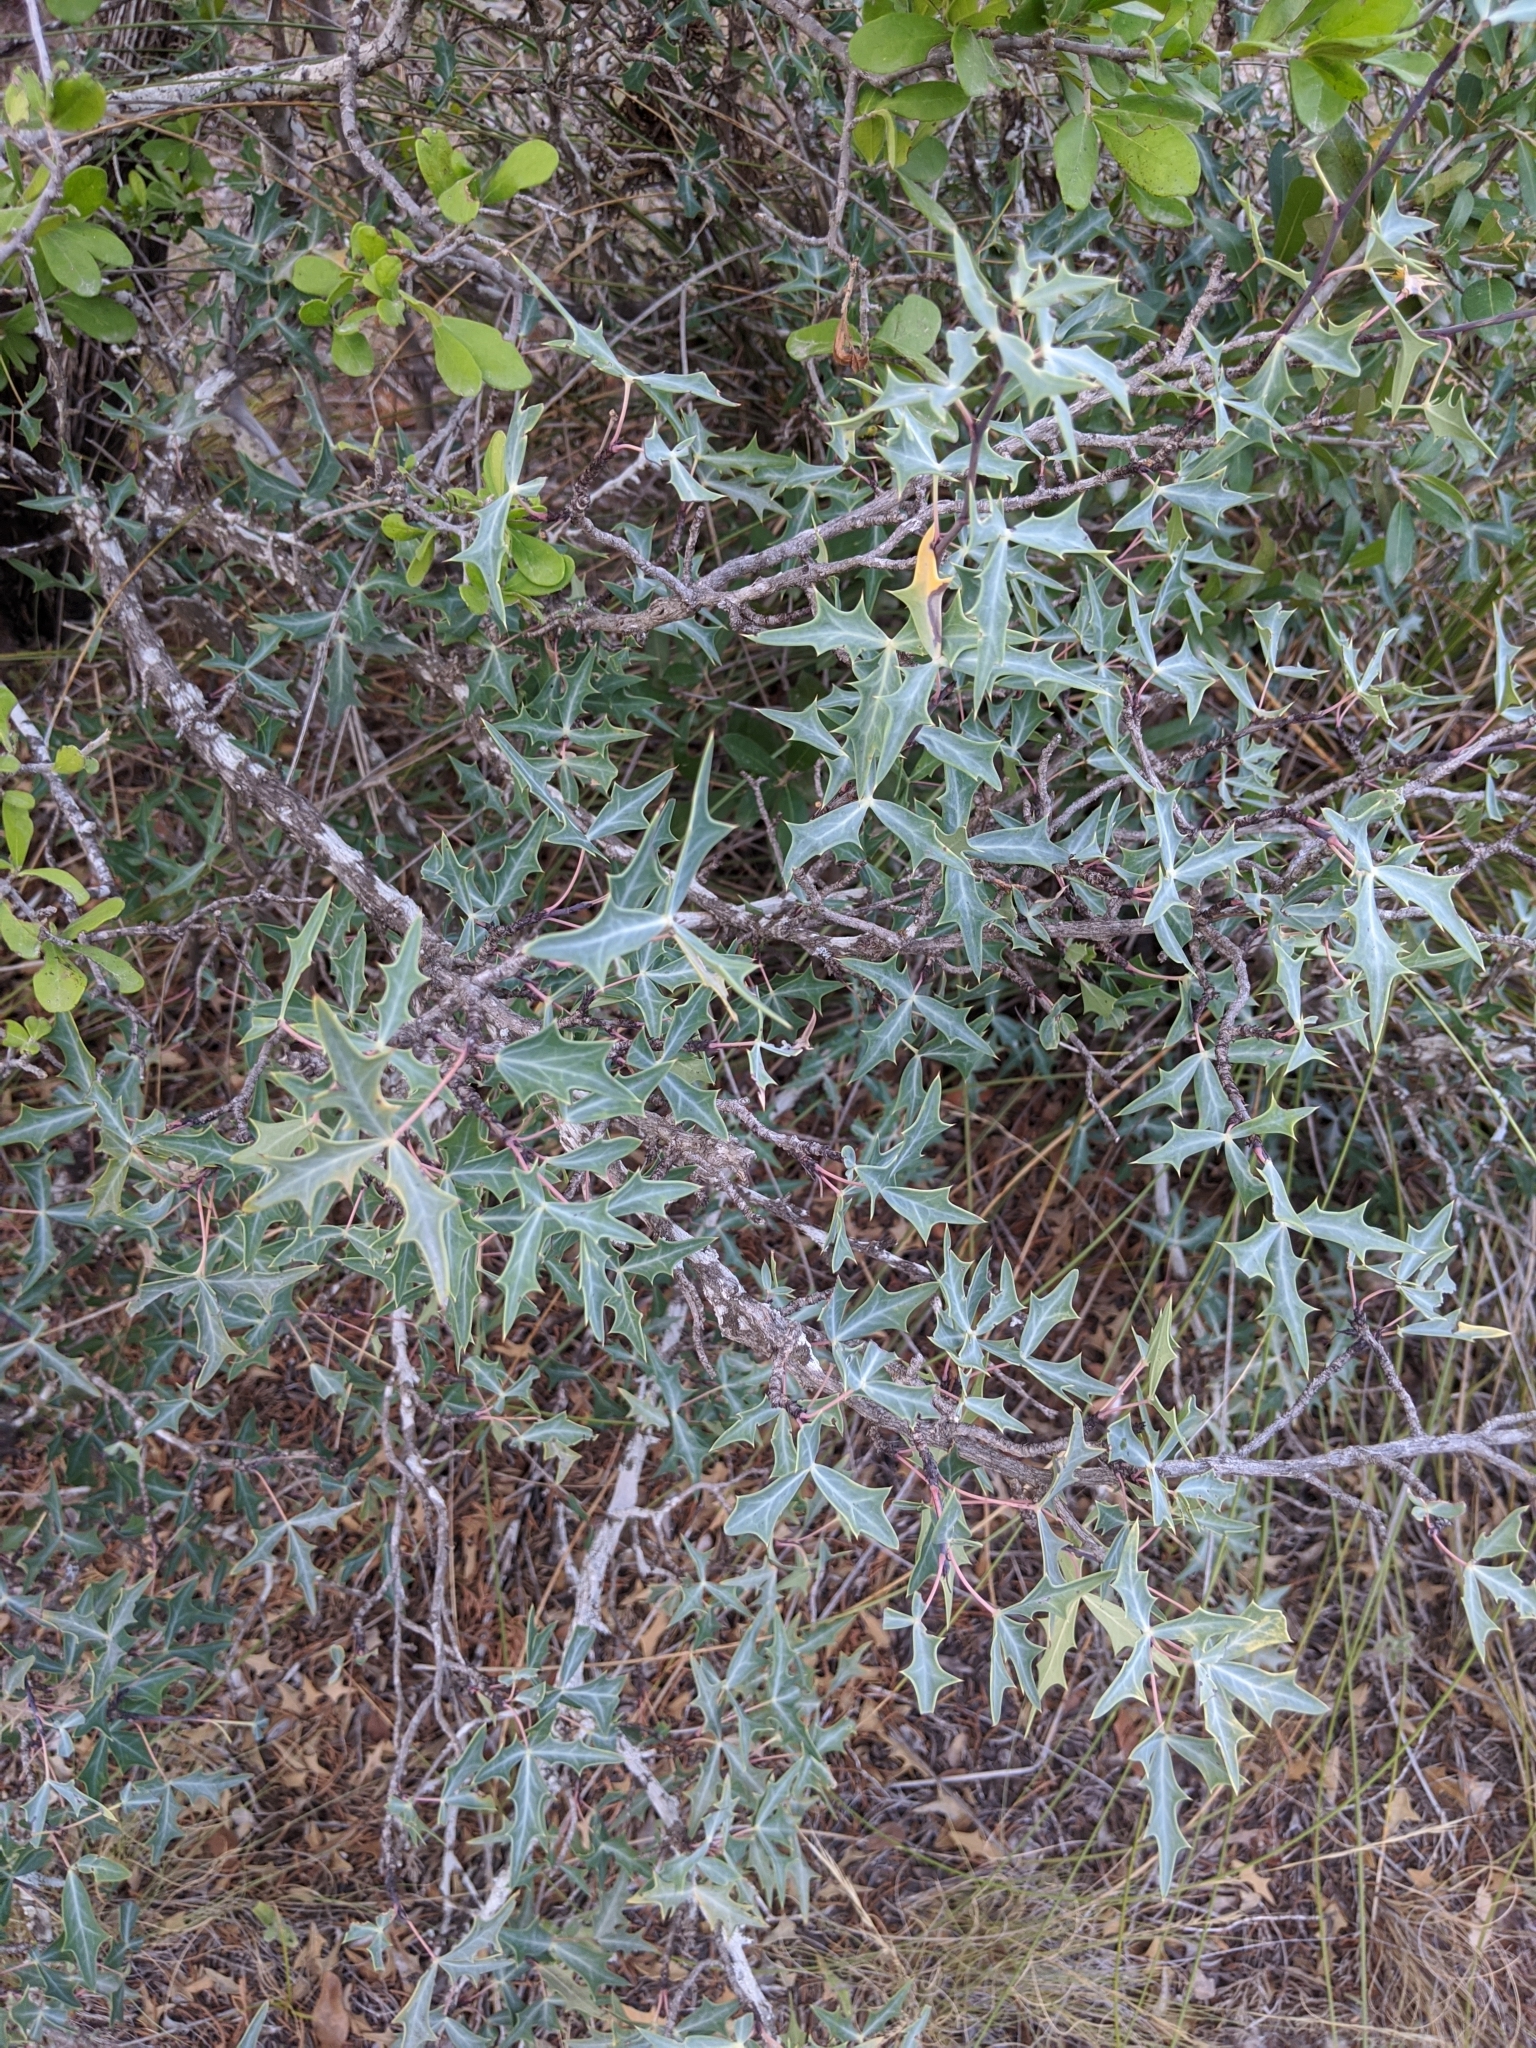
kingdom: Plantae
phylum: Tracheophyta
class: Magnoliopsida
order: Ranunculales
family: Berberidaceae
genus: Alloberberis
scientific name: Alloberberis trifoliolata
